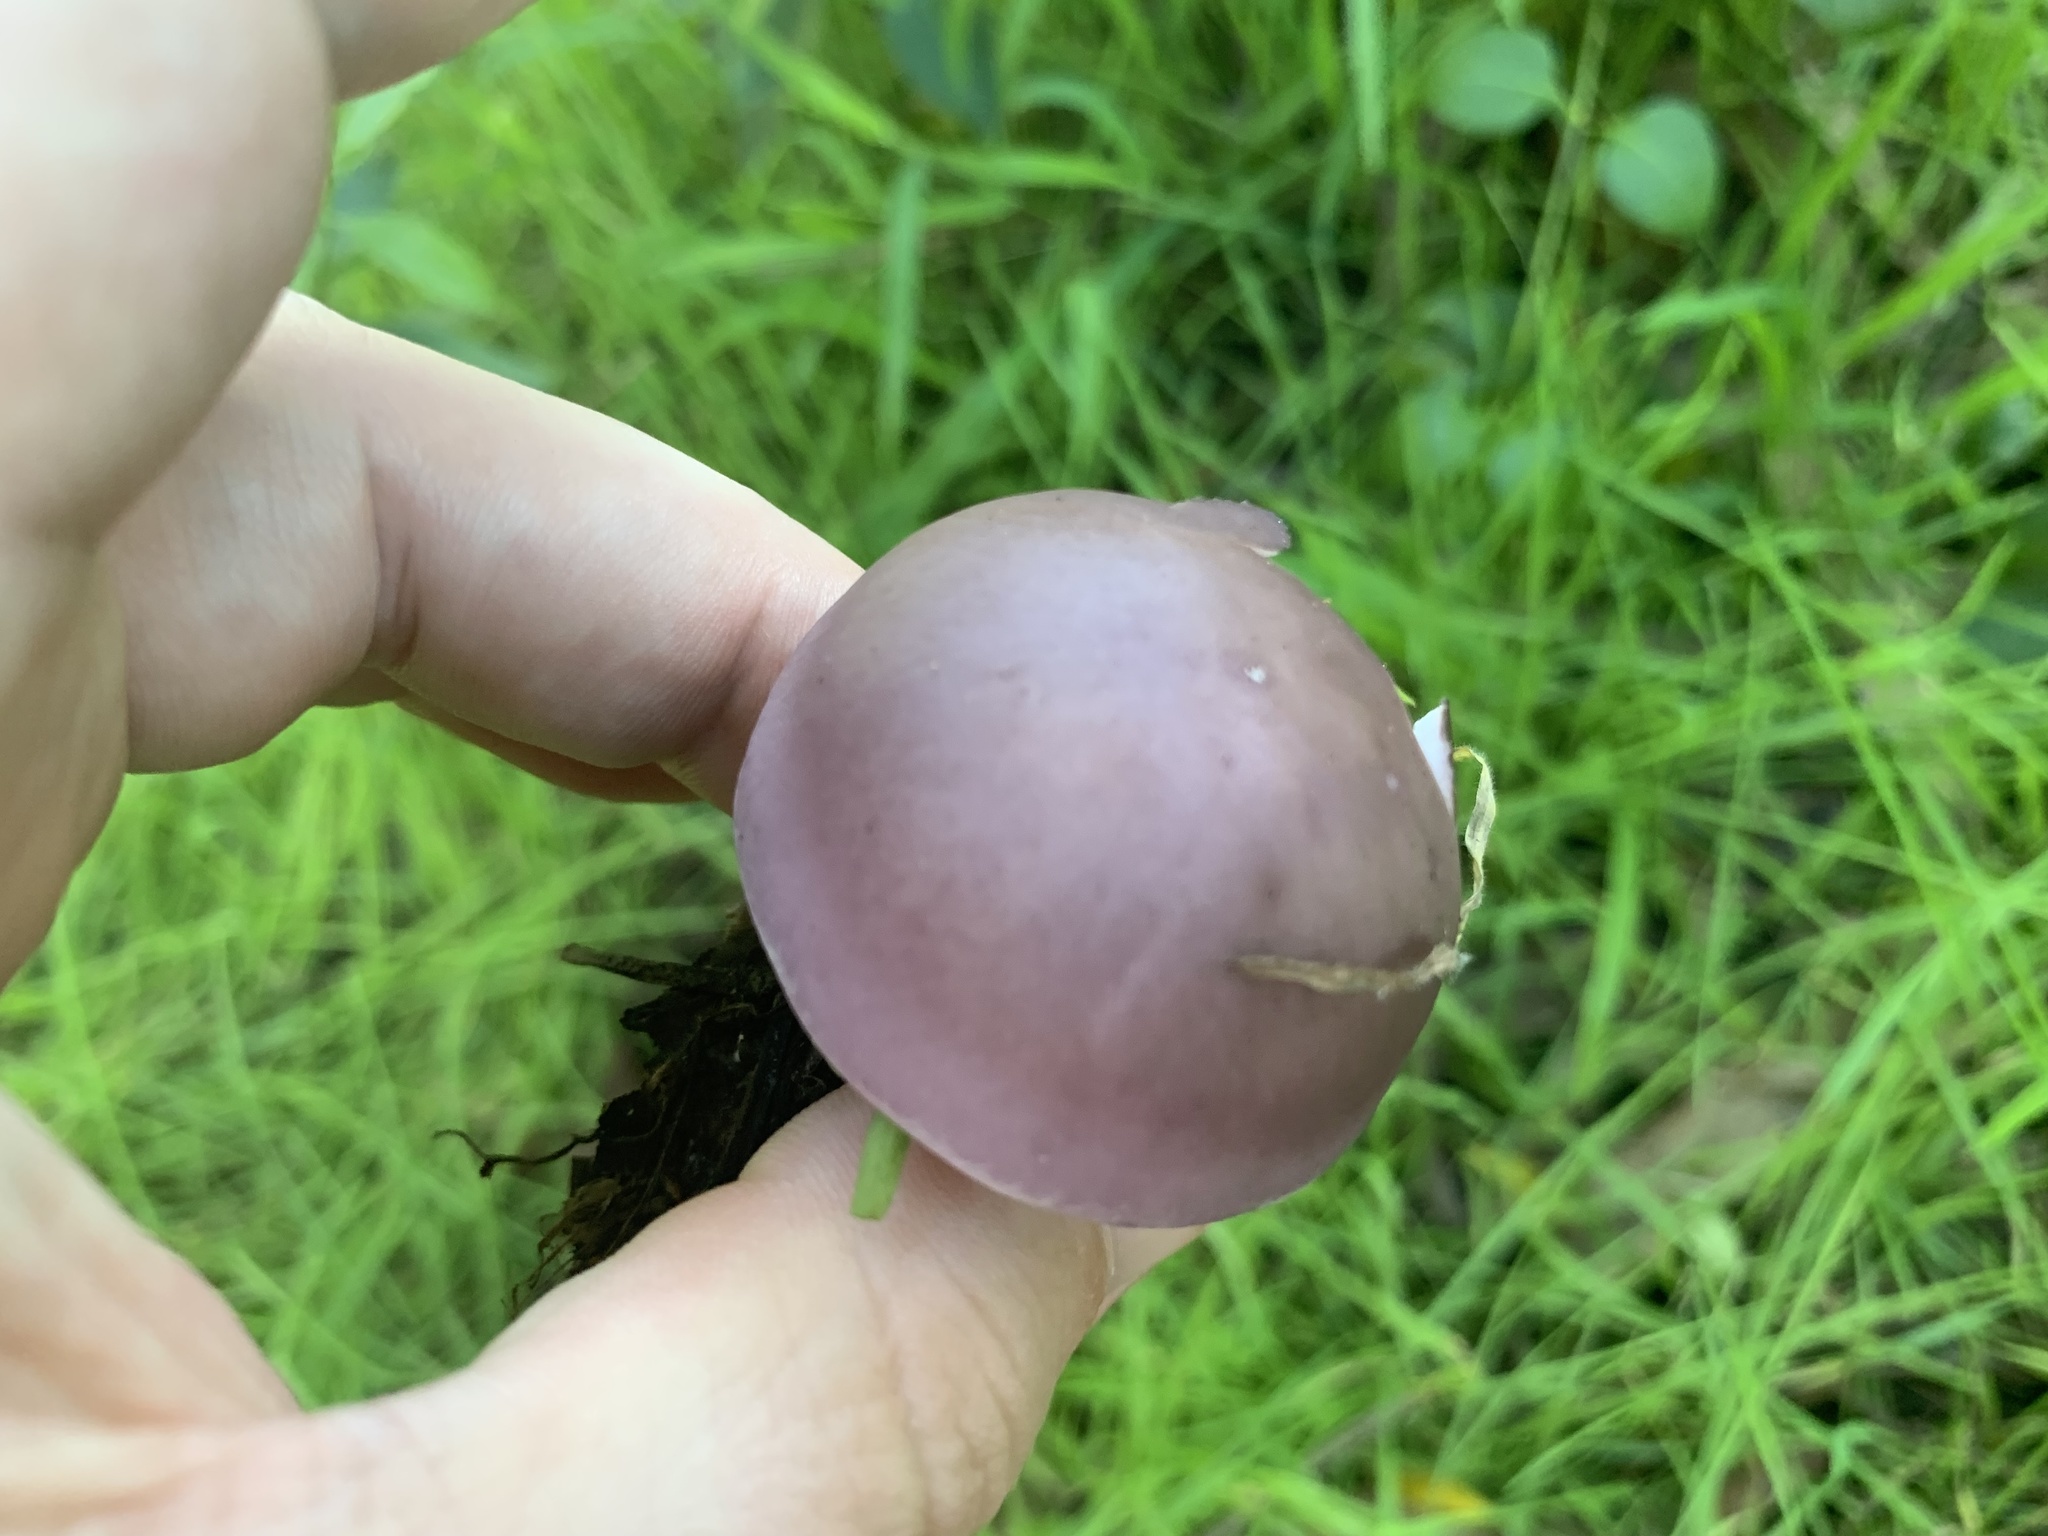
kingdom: Fungi
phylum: Basidiomycota
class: Agaricomycetes
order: Agaricales
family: Tricholomataceae
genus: Collybia
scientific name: Collybia
